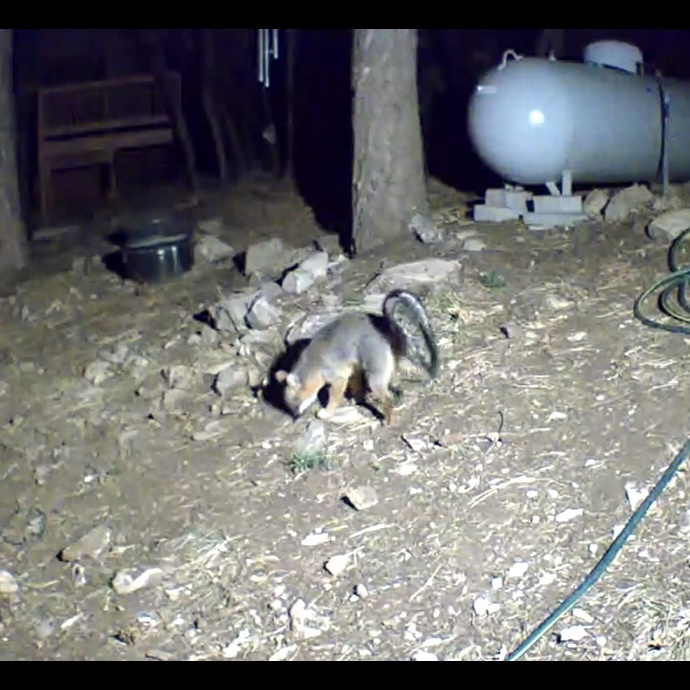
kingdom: Animalia
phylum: Chordata
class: Mammalia
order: Carnivora
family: Canidae
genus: Urocyon
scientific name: Urocyon cinereoargenteus
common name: Gray fox
